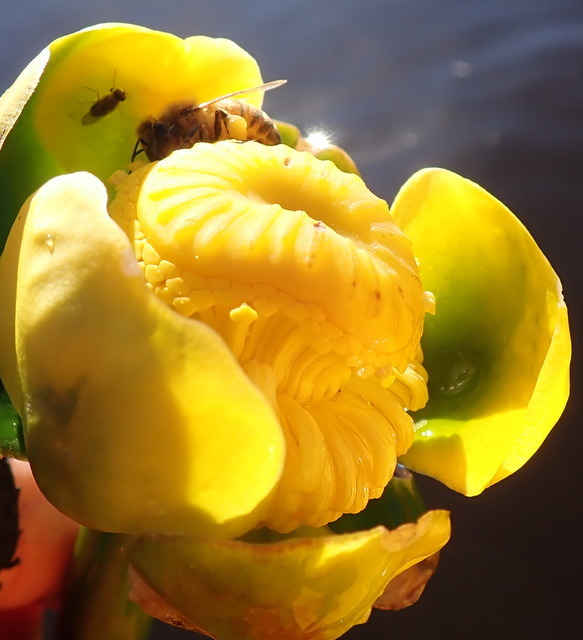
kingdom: Animalia
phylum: Arthropoda
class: Insecta
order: Hymenoptera
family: Apidae
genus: Apis
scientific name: Apis mellifera
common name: Honey bee
